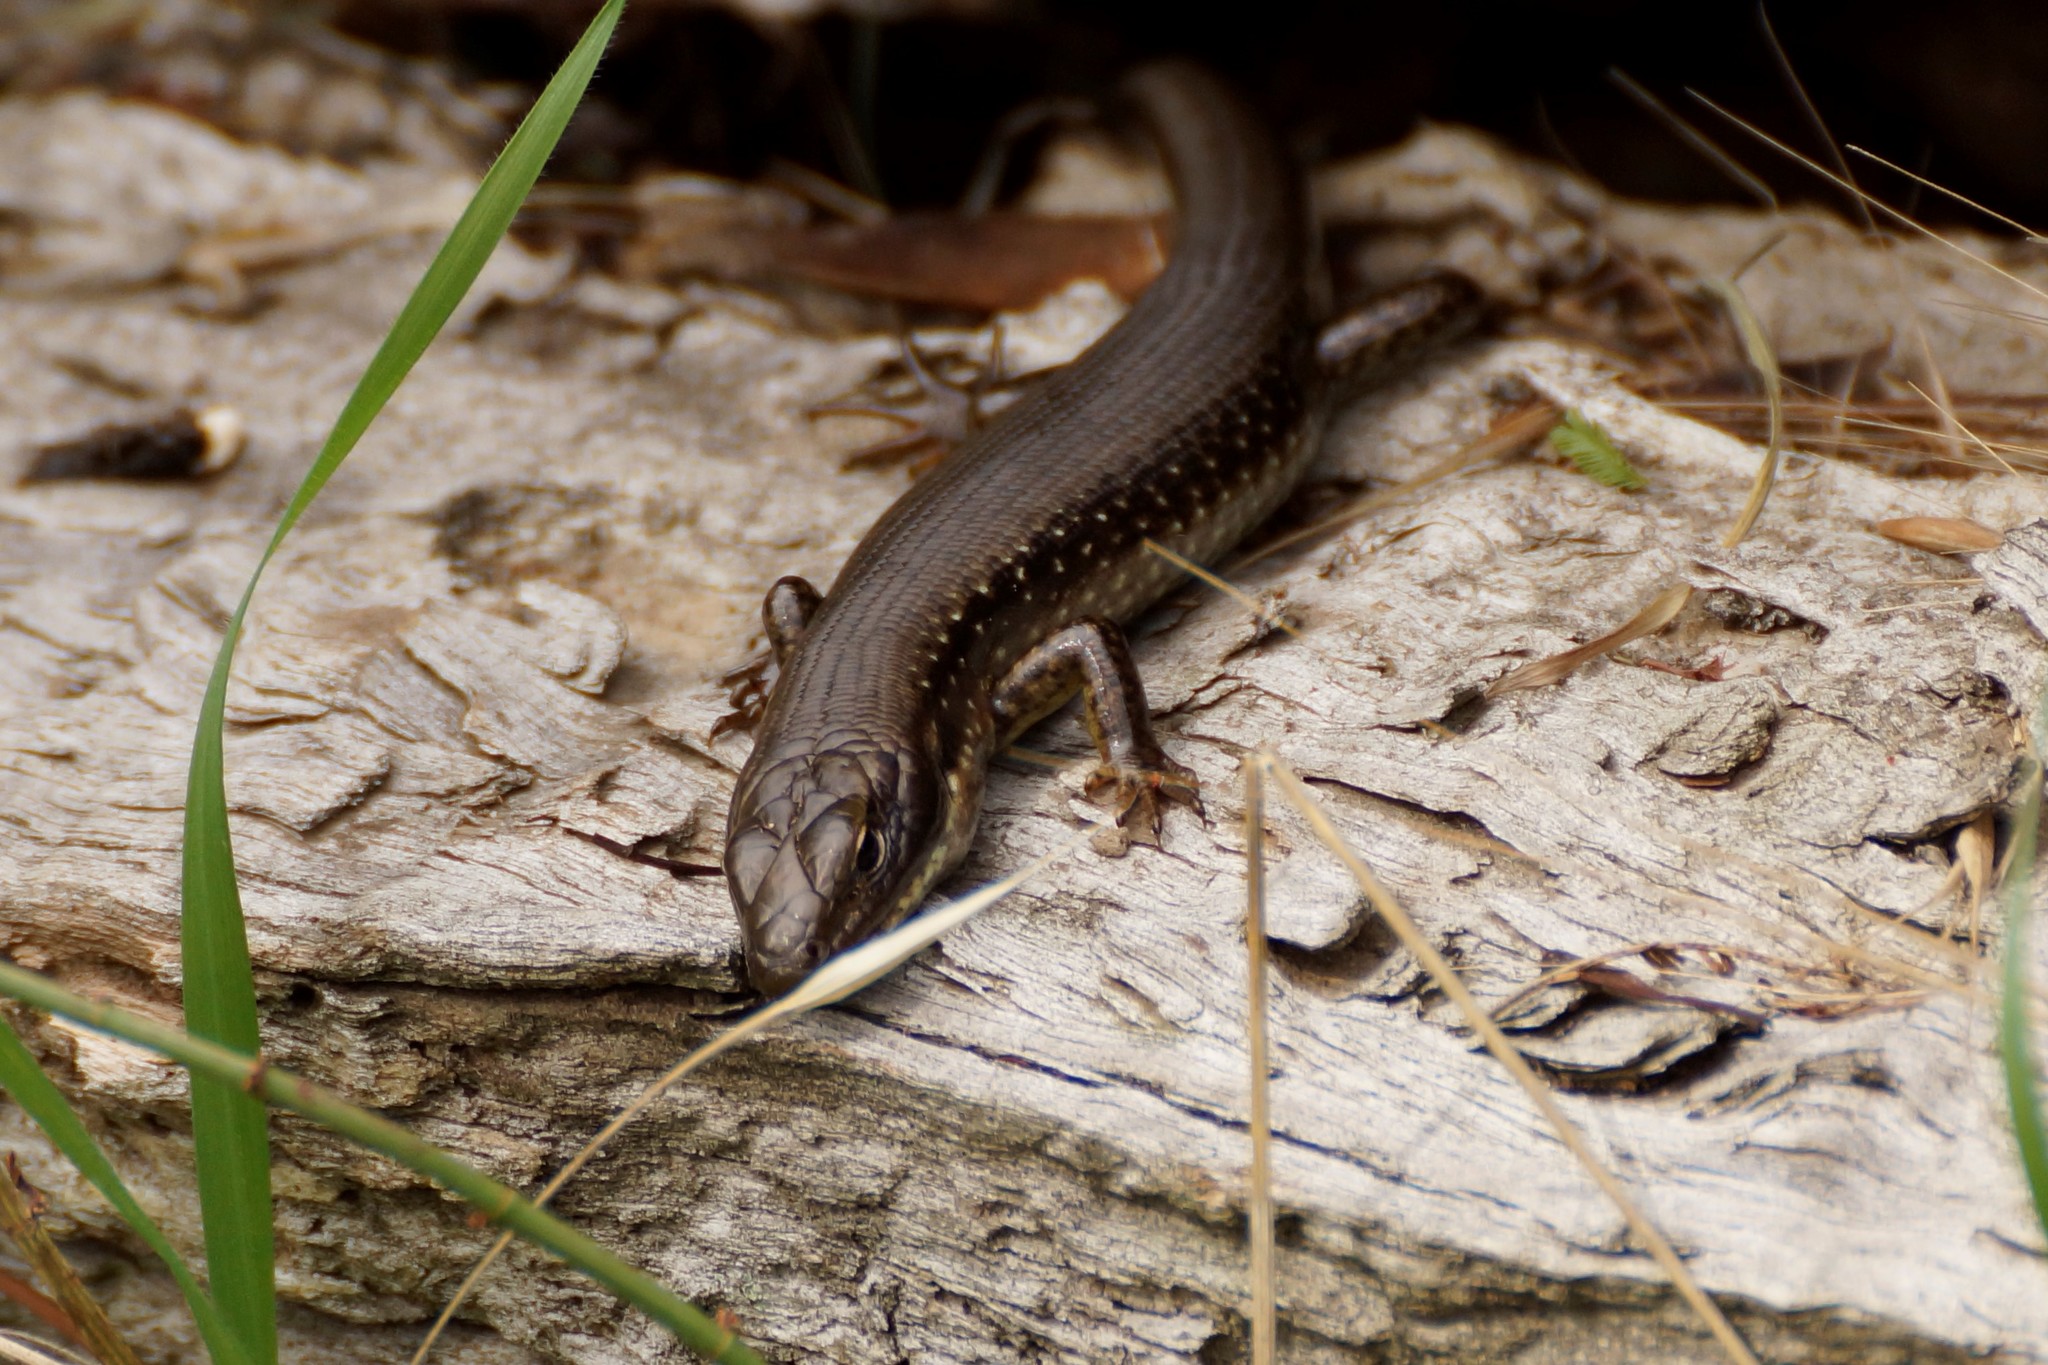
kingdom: Animalia
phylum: Chordata
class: Squamata
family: Scincidae
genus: Eulamprus
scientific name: Eulamprus tympanum
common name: Cool-temperate water-skink
